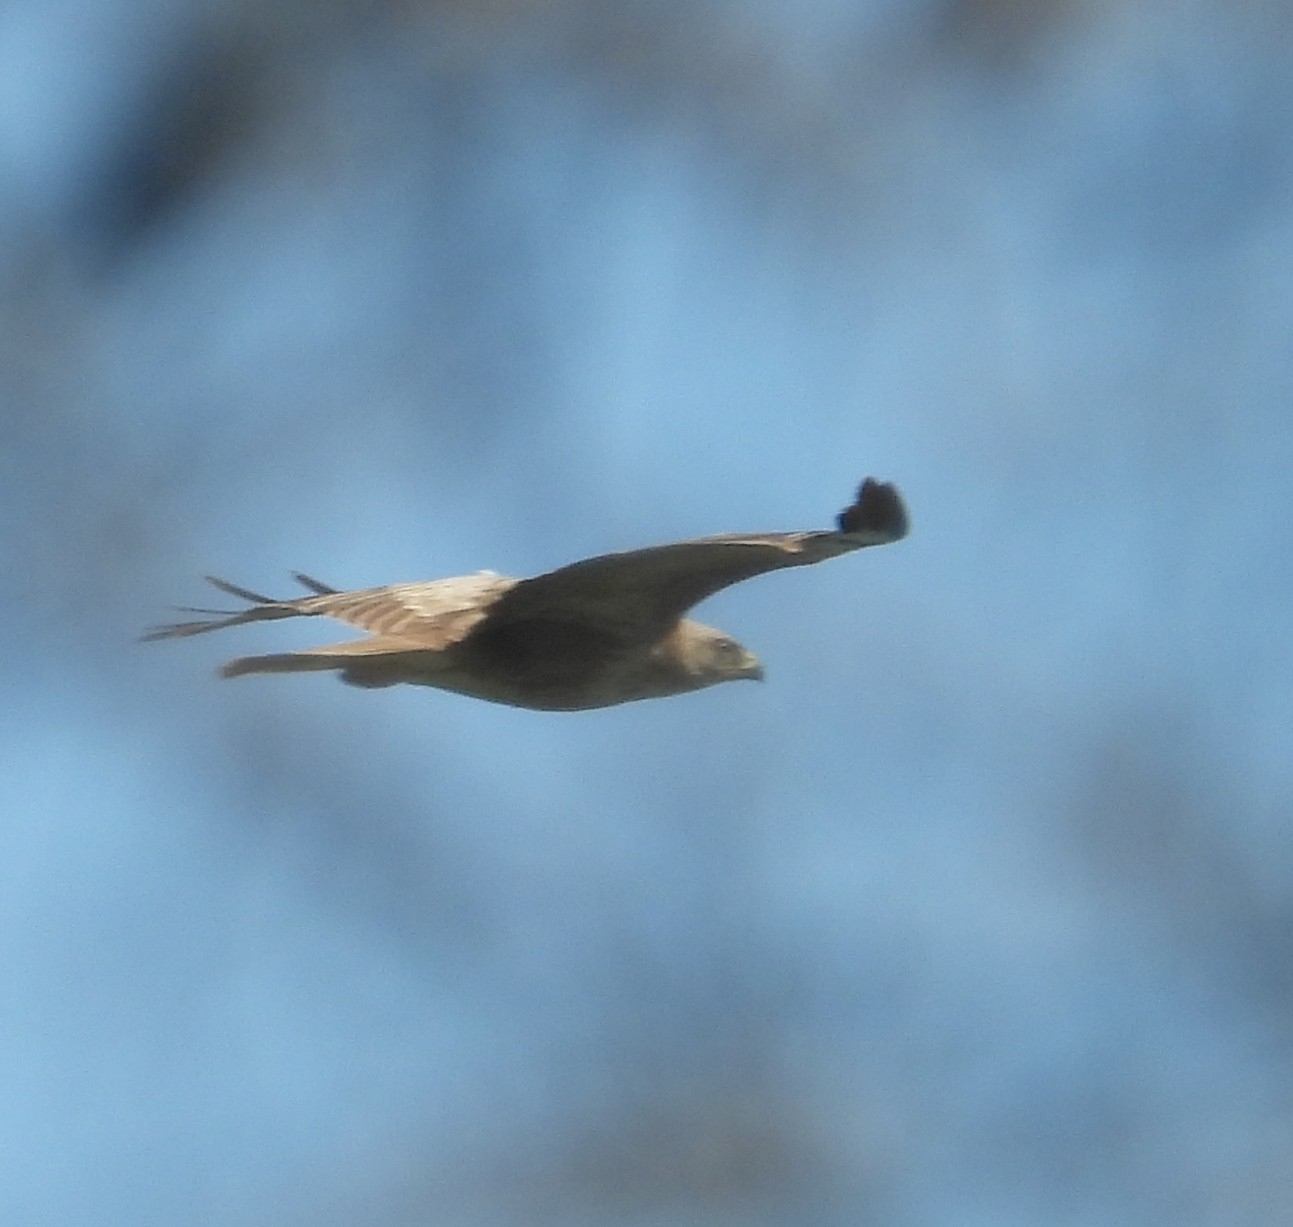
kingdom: Animalia
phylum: Chordata
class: Aves
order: Accipitriformes
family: Accipitridae
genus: Buteo
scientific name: Buteo buteo
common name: Common buzzard
